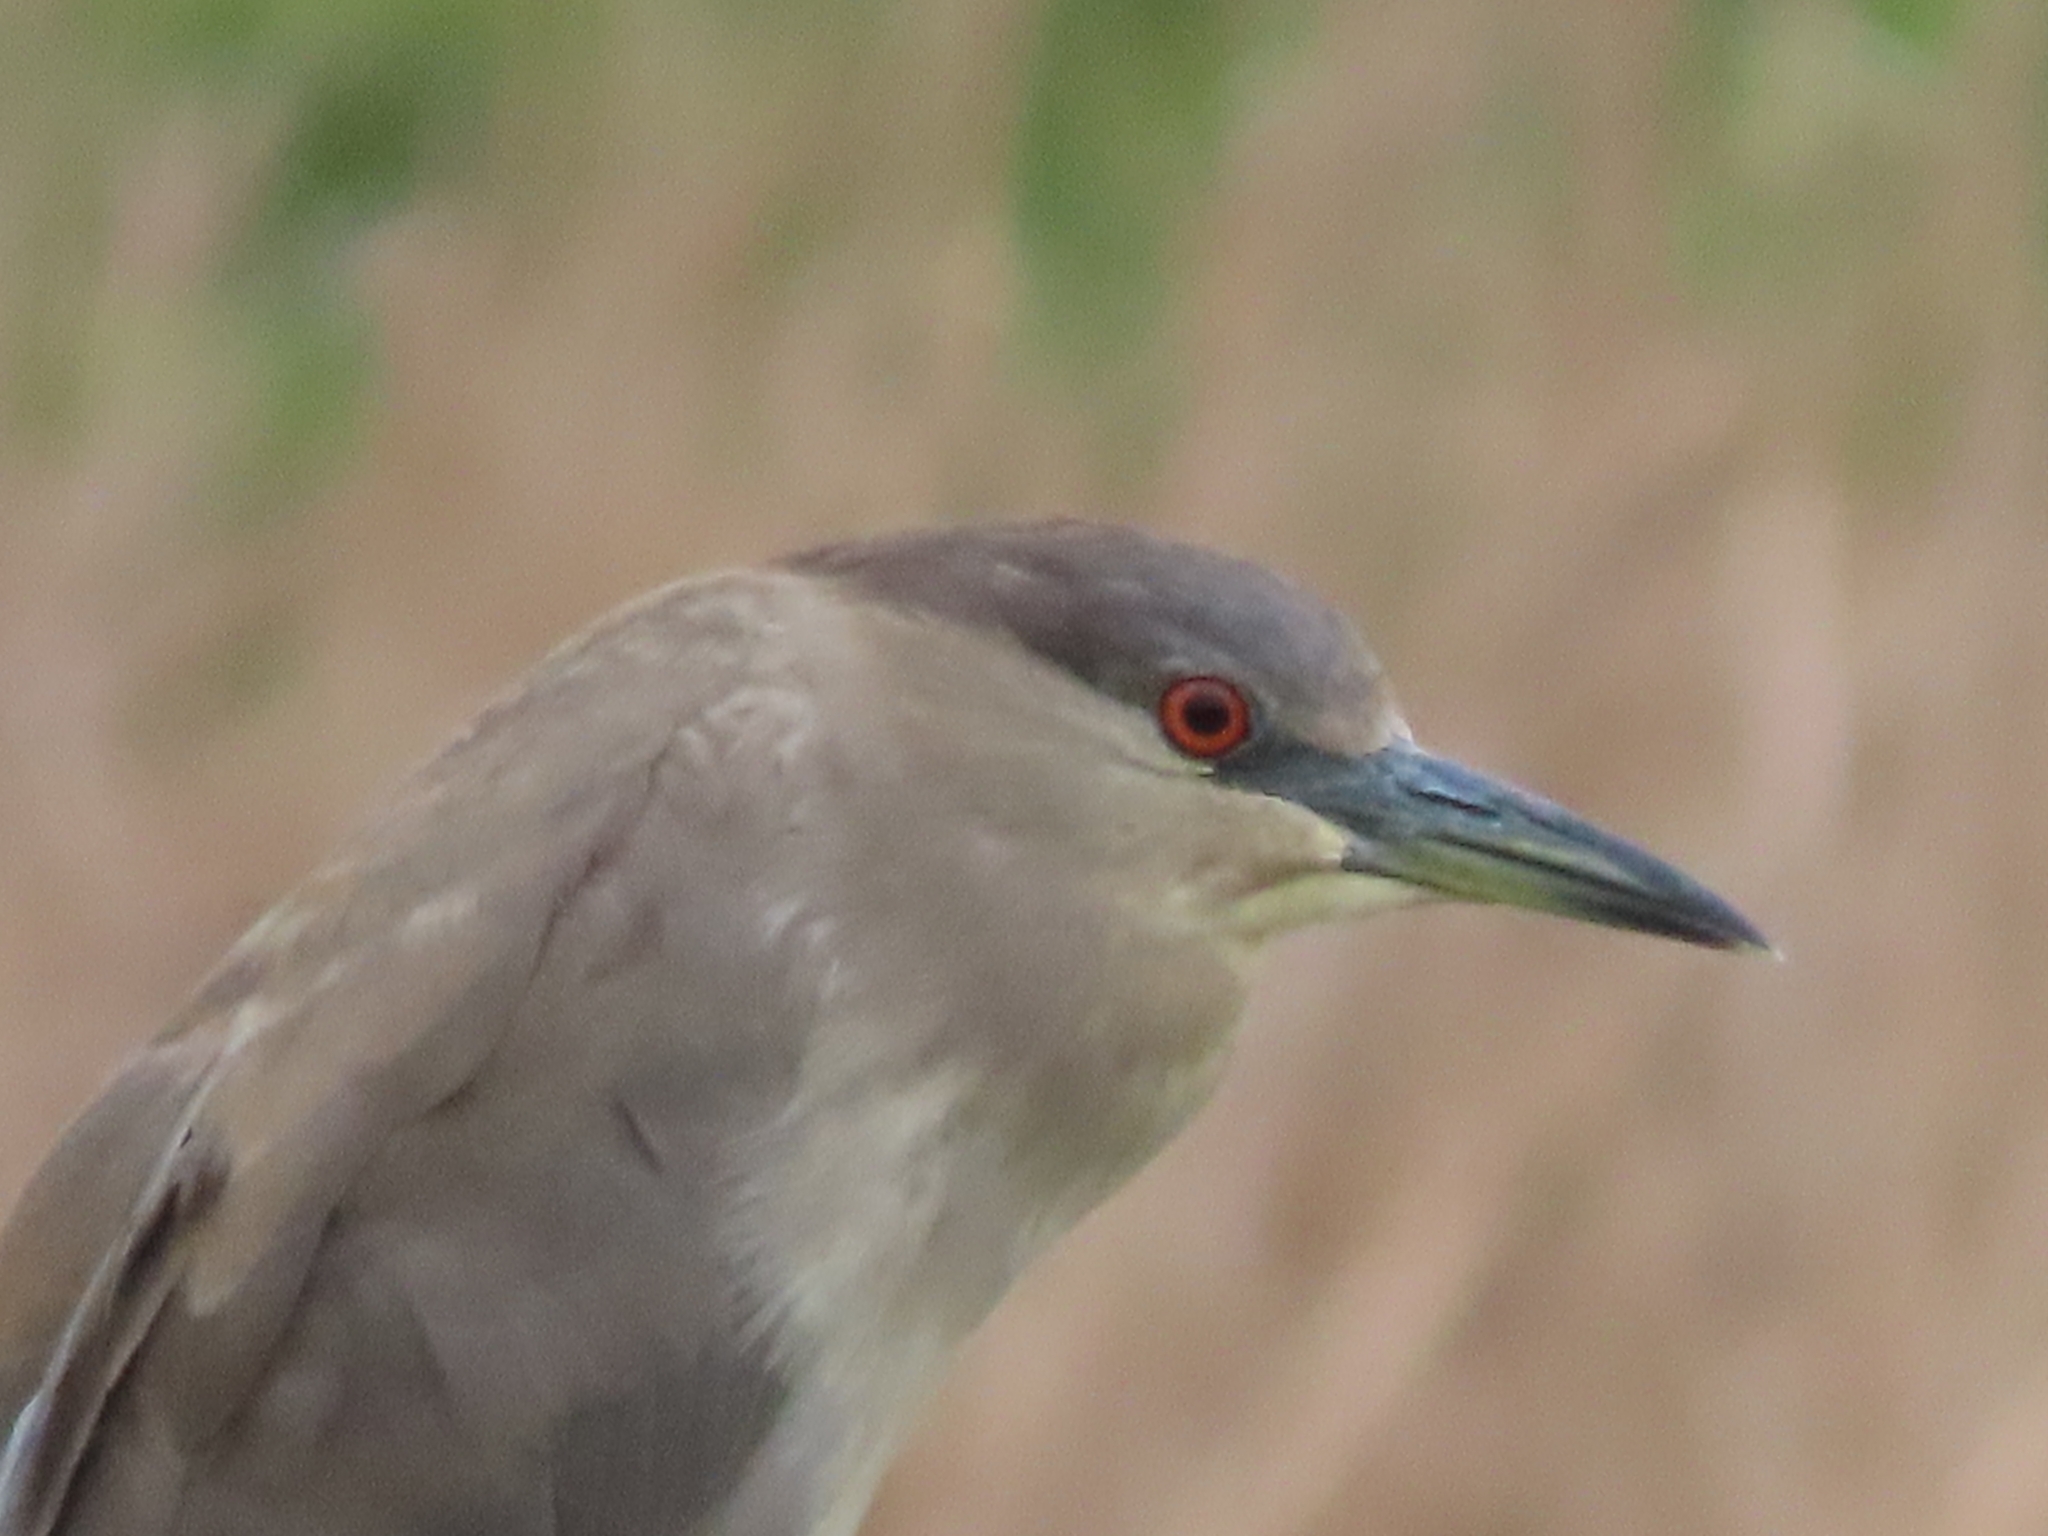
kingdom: Animalia
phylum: Chordata
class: Aves
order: Pelecaniformes
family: Ardeidae
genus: Nycticorax
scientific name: Nycticorax nycticorax
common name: Black-crowned night heron
